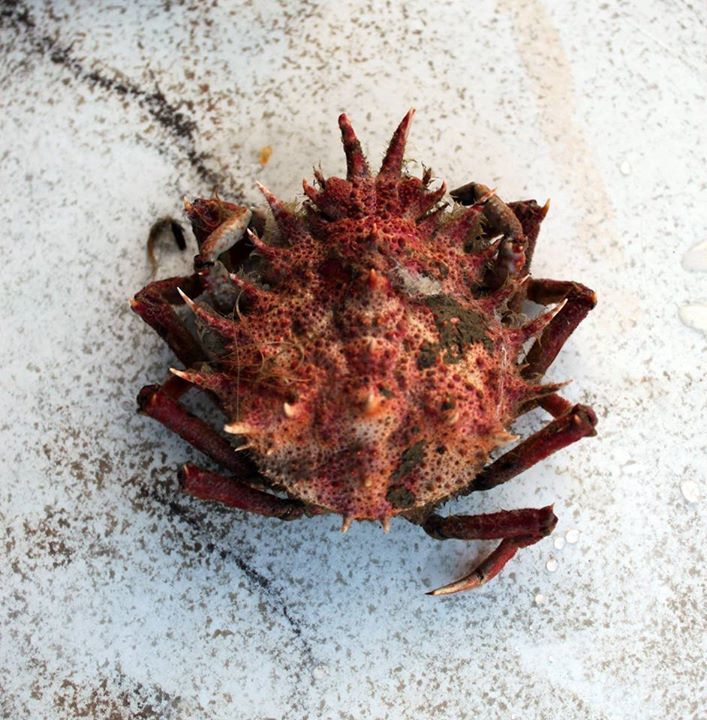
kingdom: Animalia
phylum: Arthropoda
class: Malacostraca
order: Decapoda
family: Majidae
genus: Neomaja
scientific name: Neomaja goltziana
